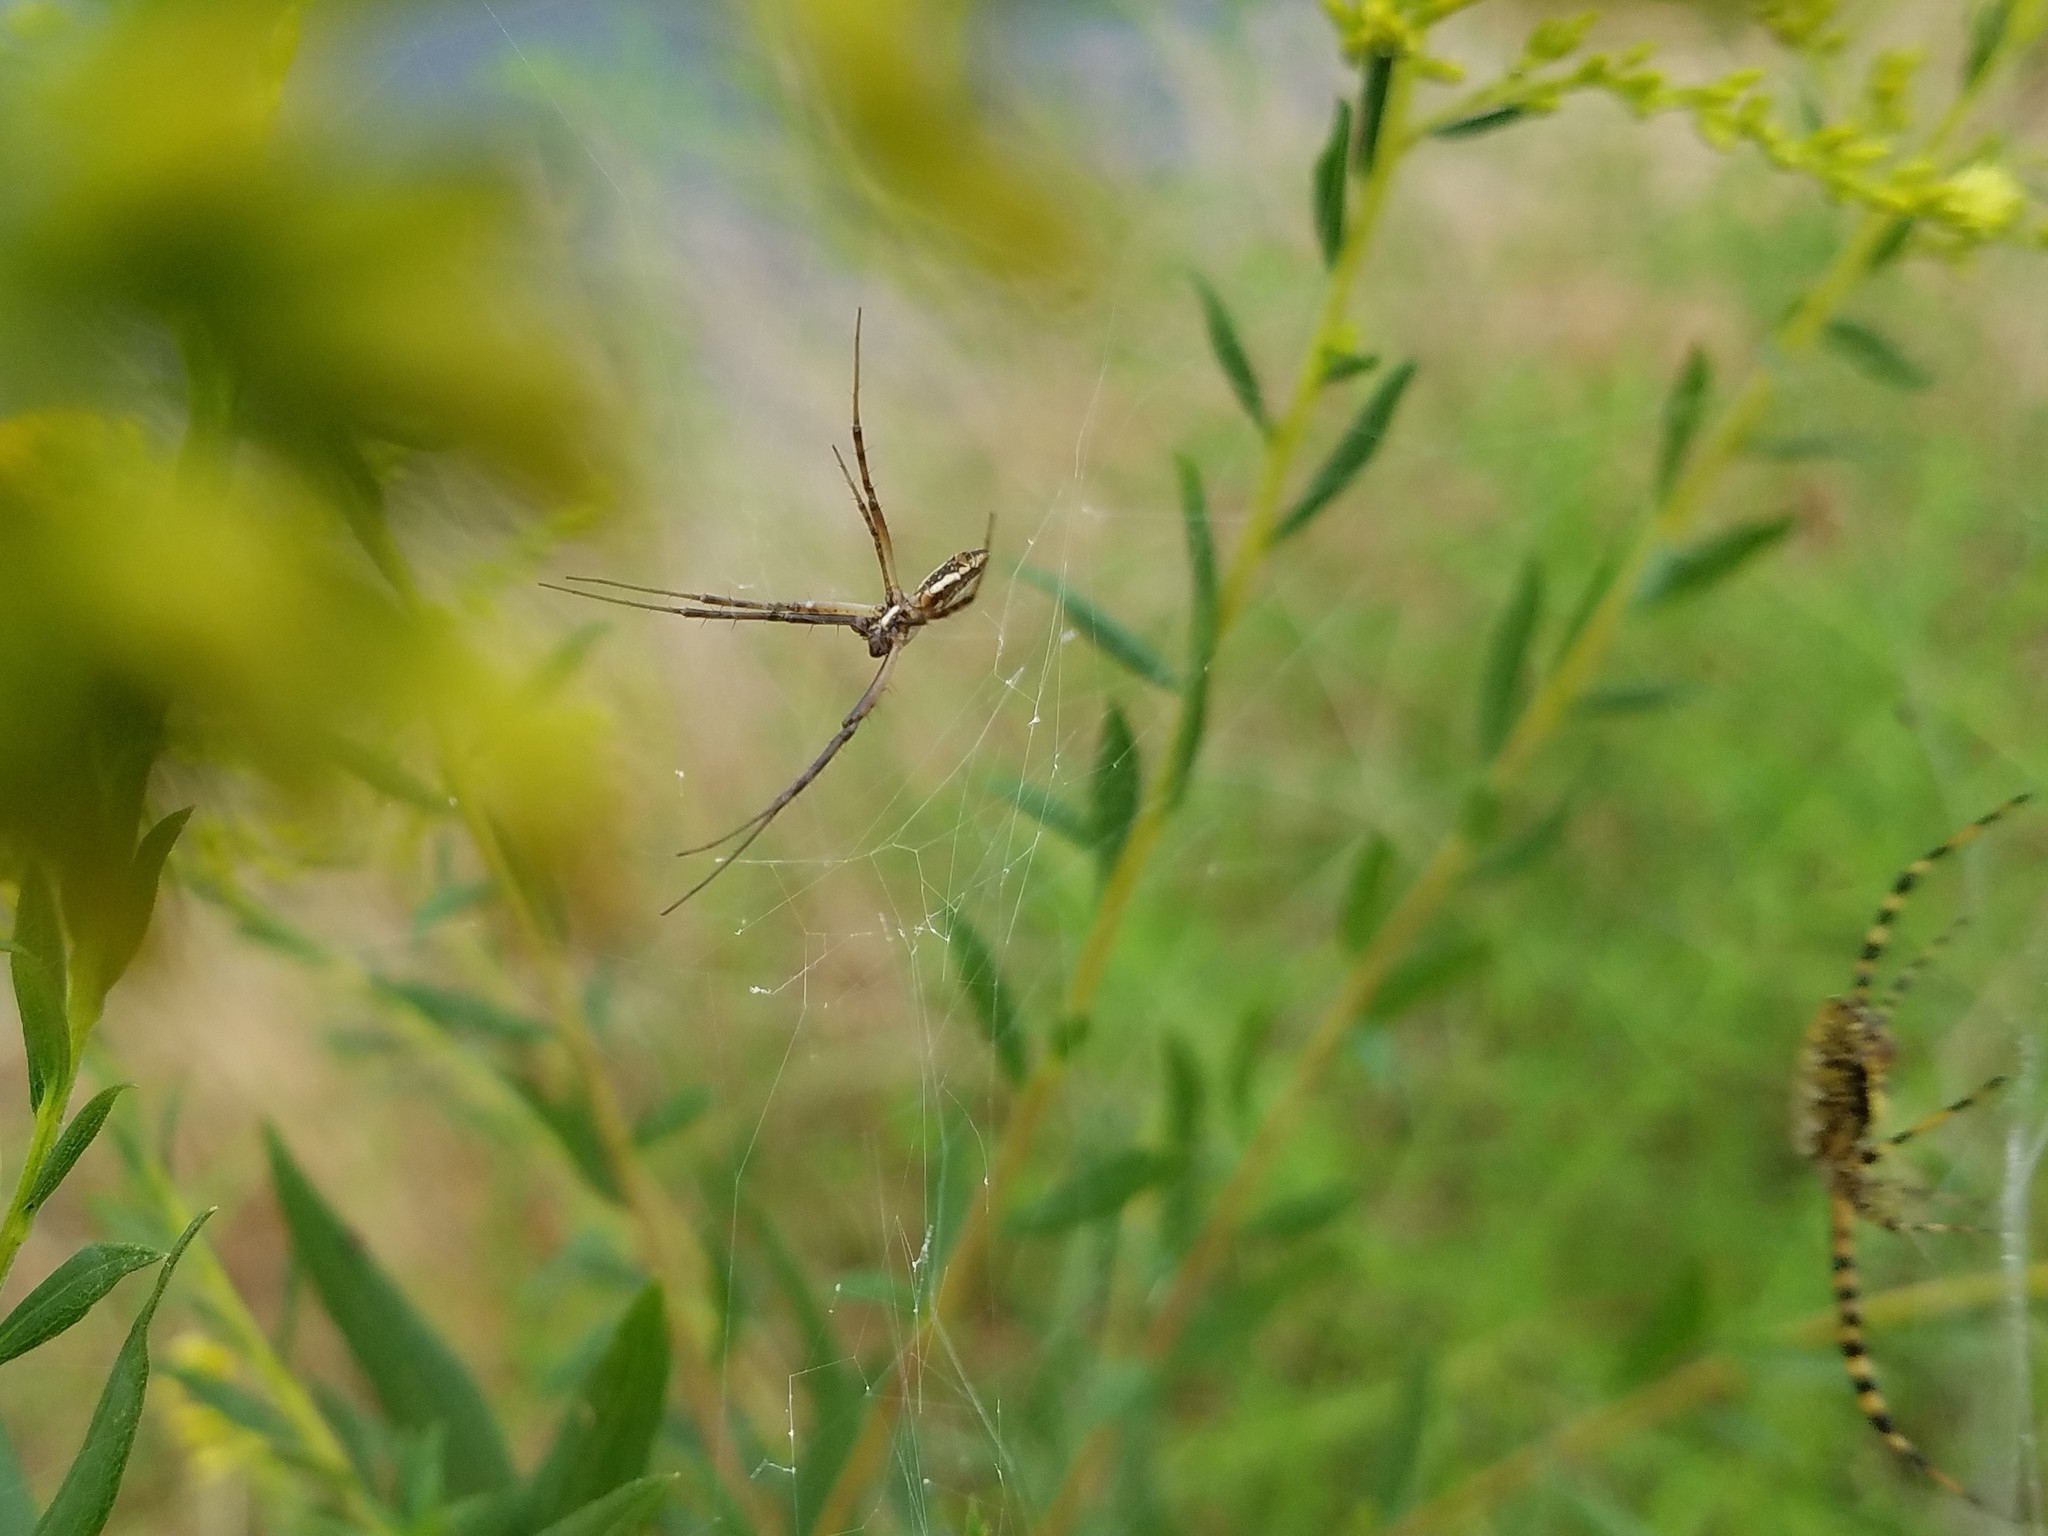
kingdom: Animalia
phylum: Arthropoda
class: Arachnida
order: Araneae
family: Araneidae
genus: Argiope
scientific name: Argiope trifasciata
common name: Banded garden spider
